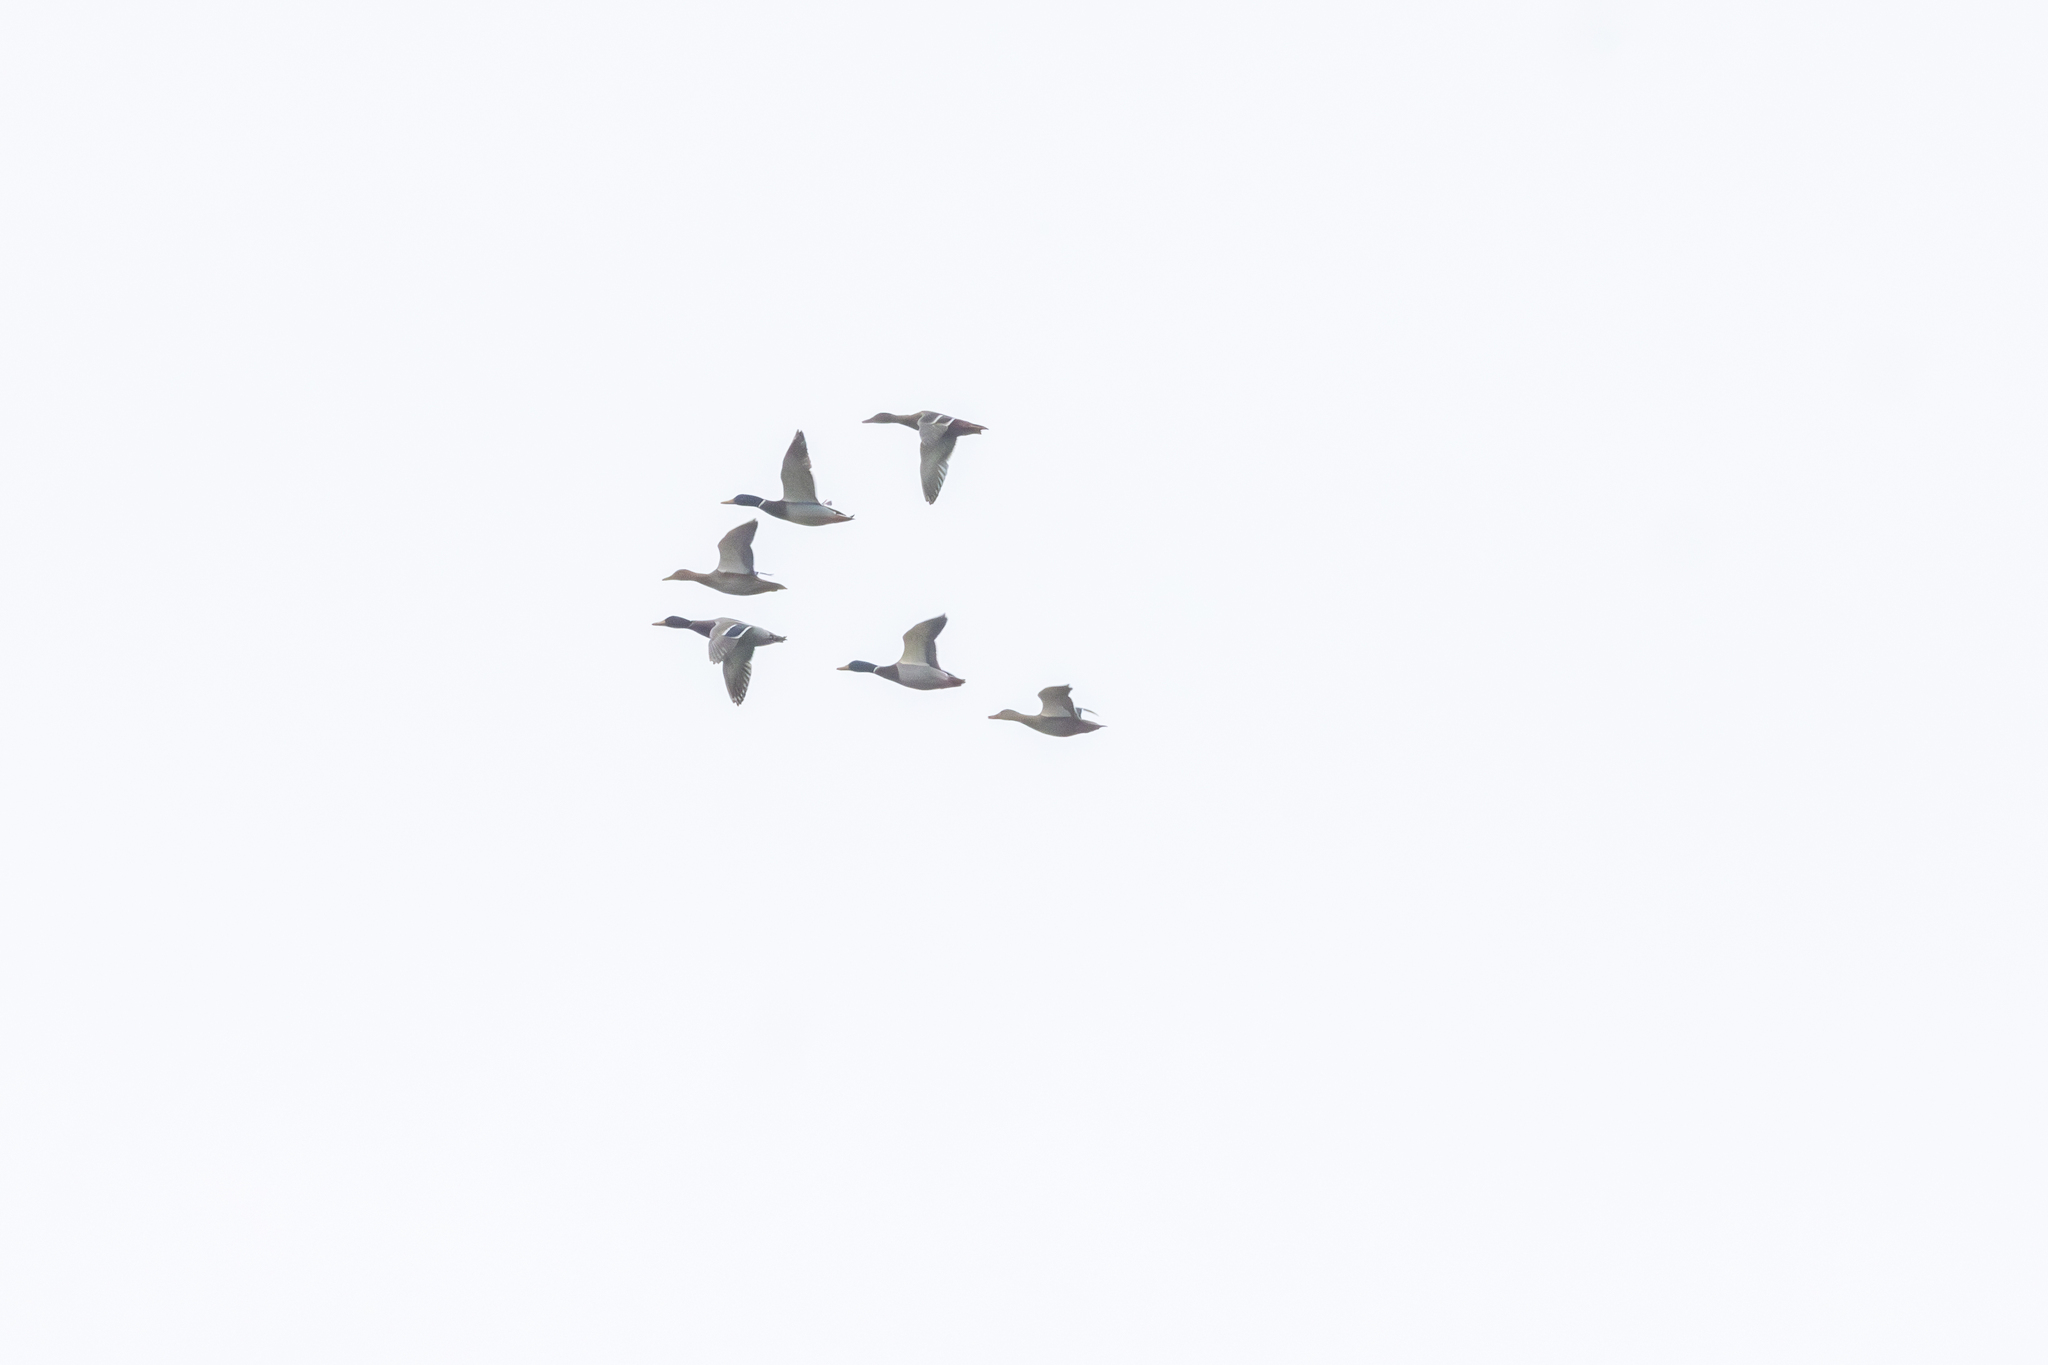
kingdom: Animalia
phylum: Chordata
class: Aves
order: Anseriformes
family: Anatidae
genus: Anas
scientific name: Anas platyrhynchos
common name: Mallard
